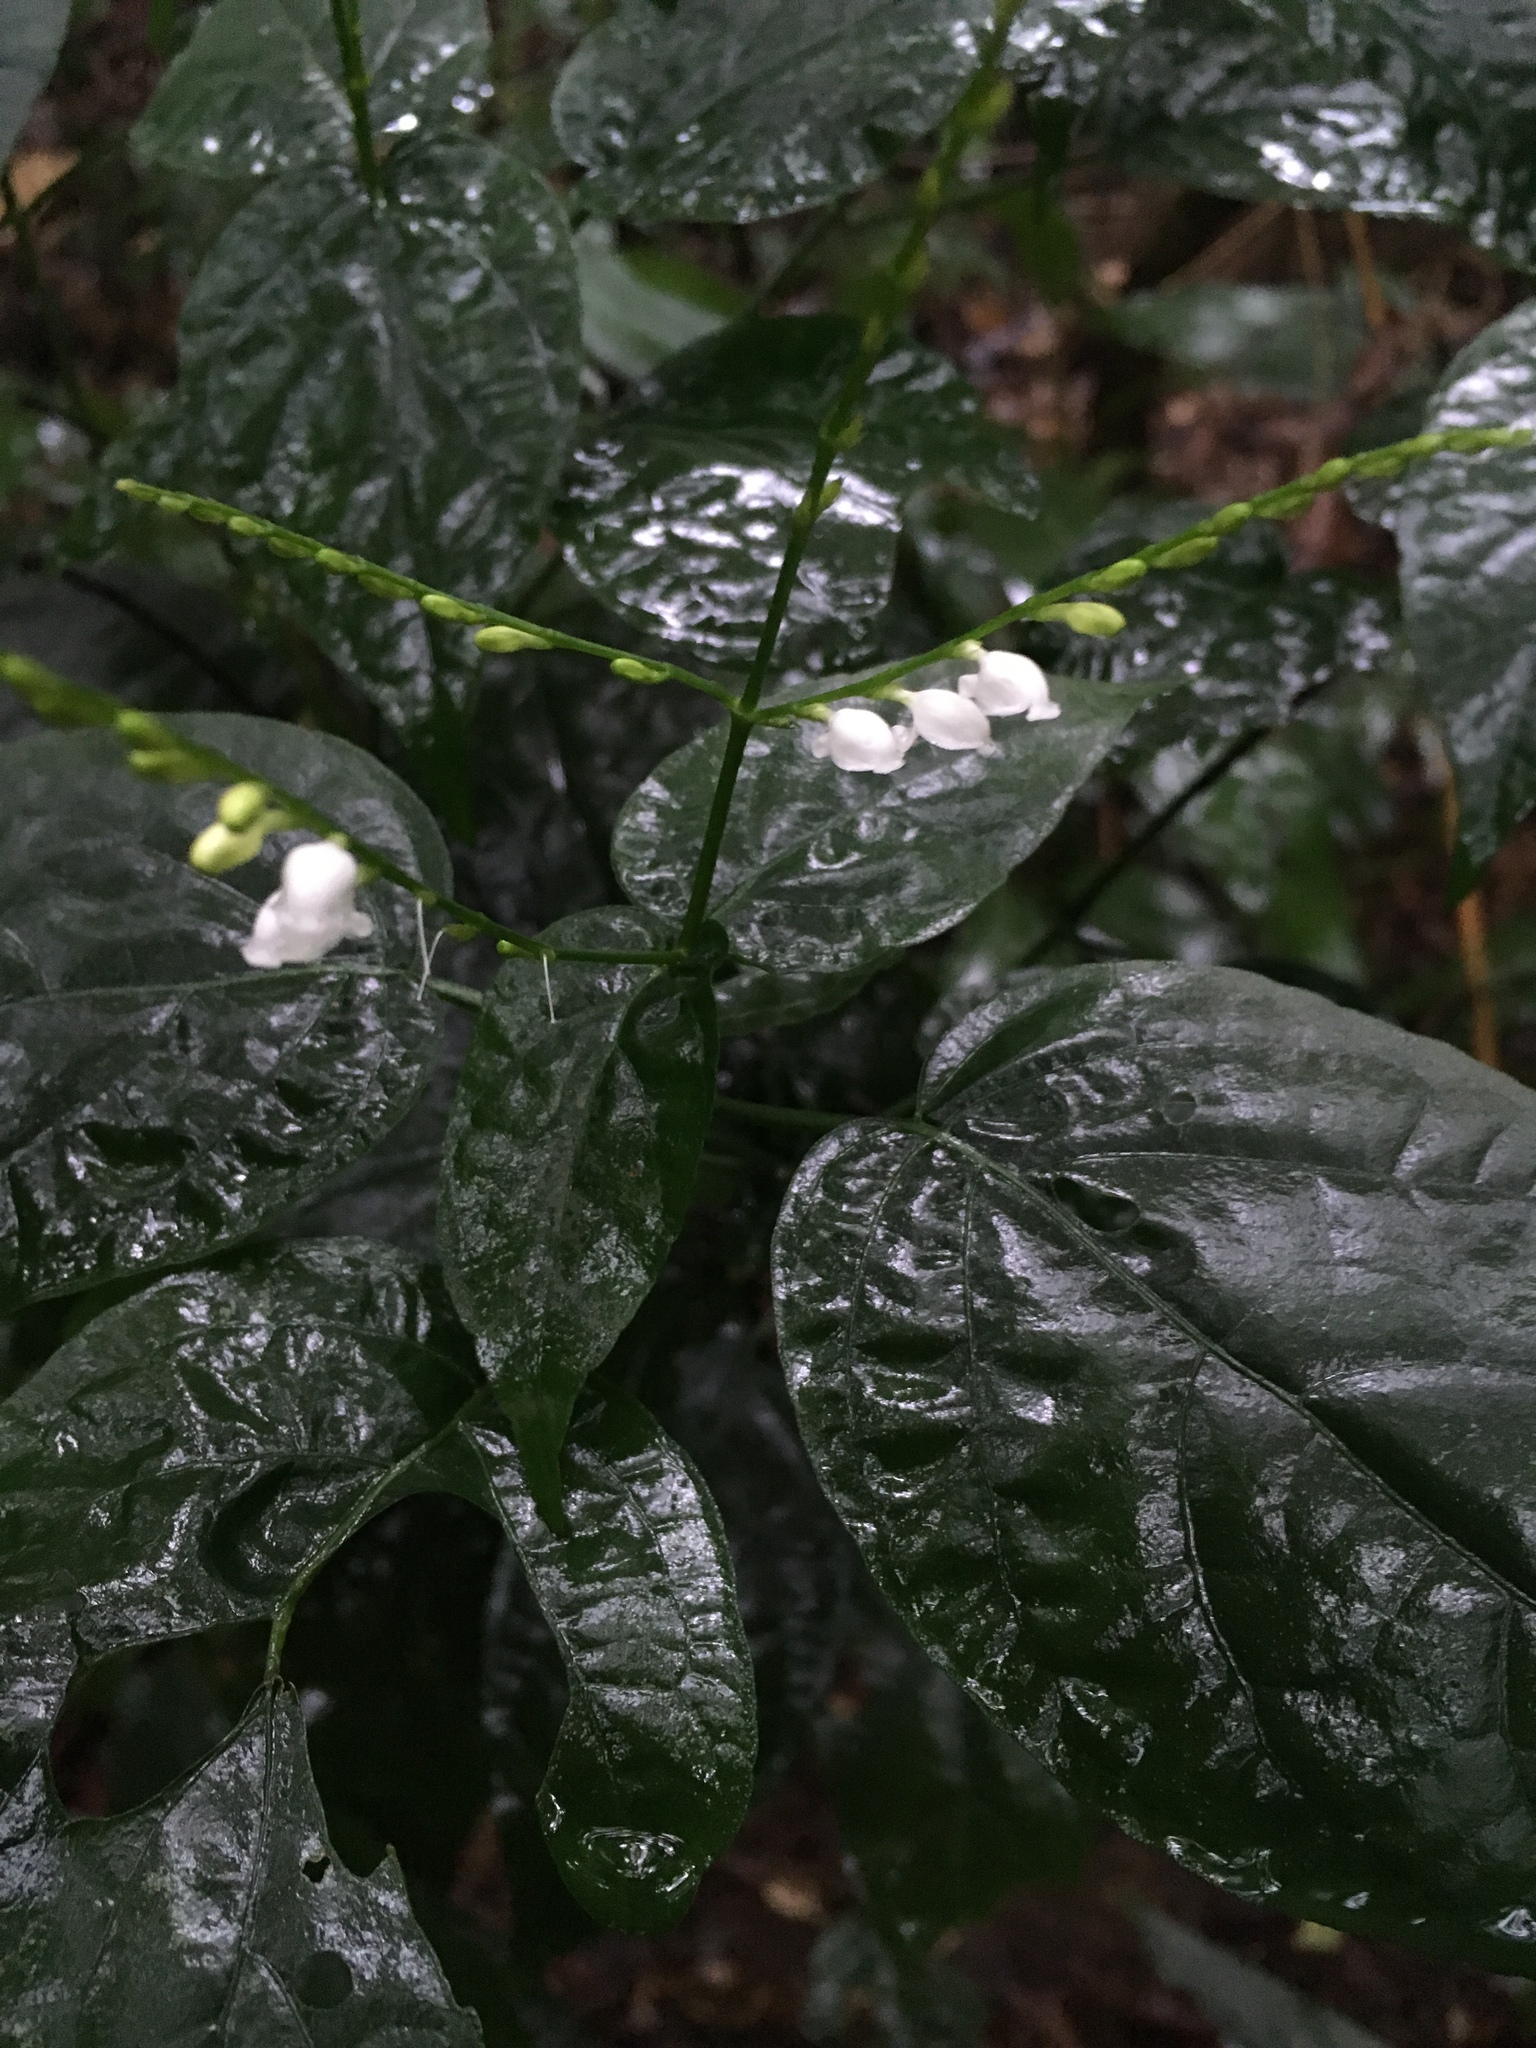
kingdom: Plantae
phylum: Tracheophyta
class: Magnoliopsida
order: Lamiales
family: Acanthaceae
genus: Leptostachya
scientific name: Leptostachya wallichii
